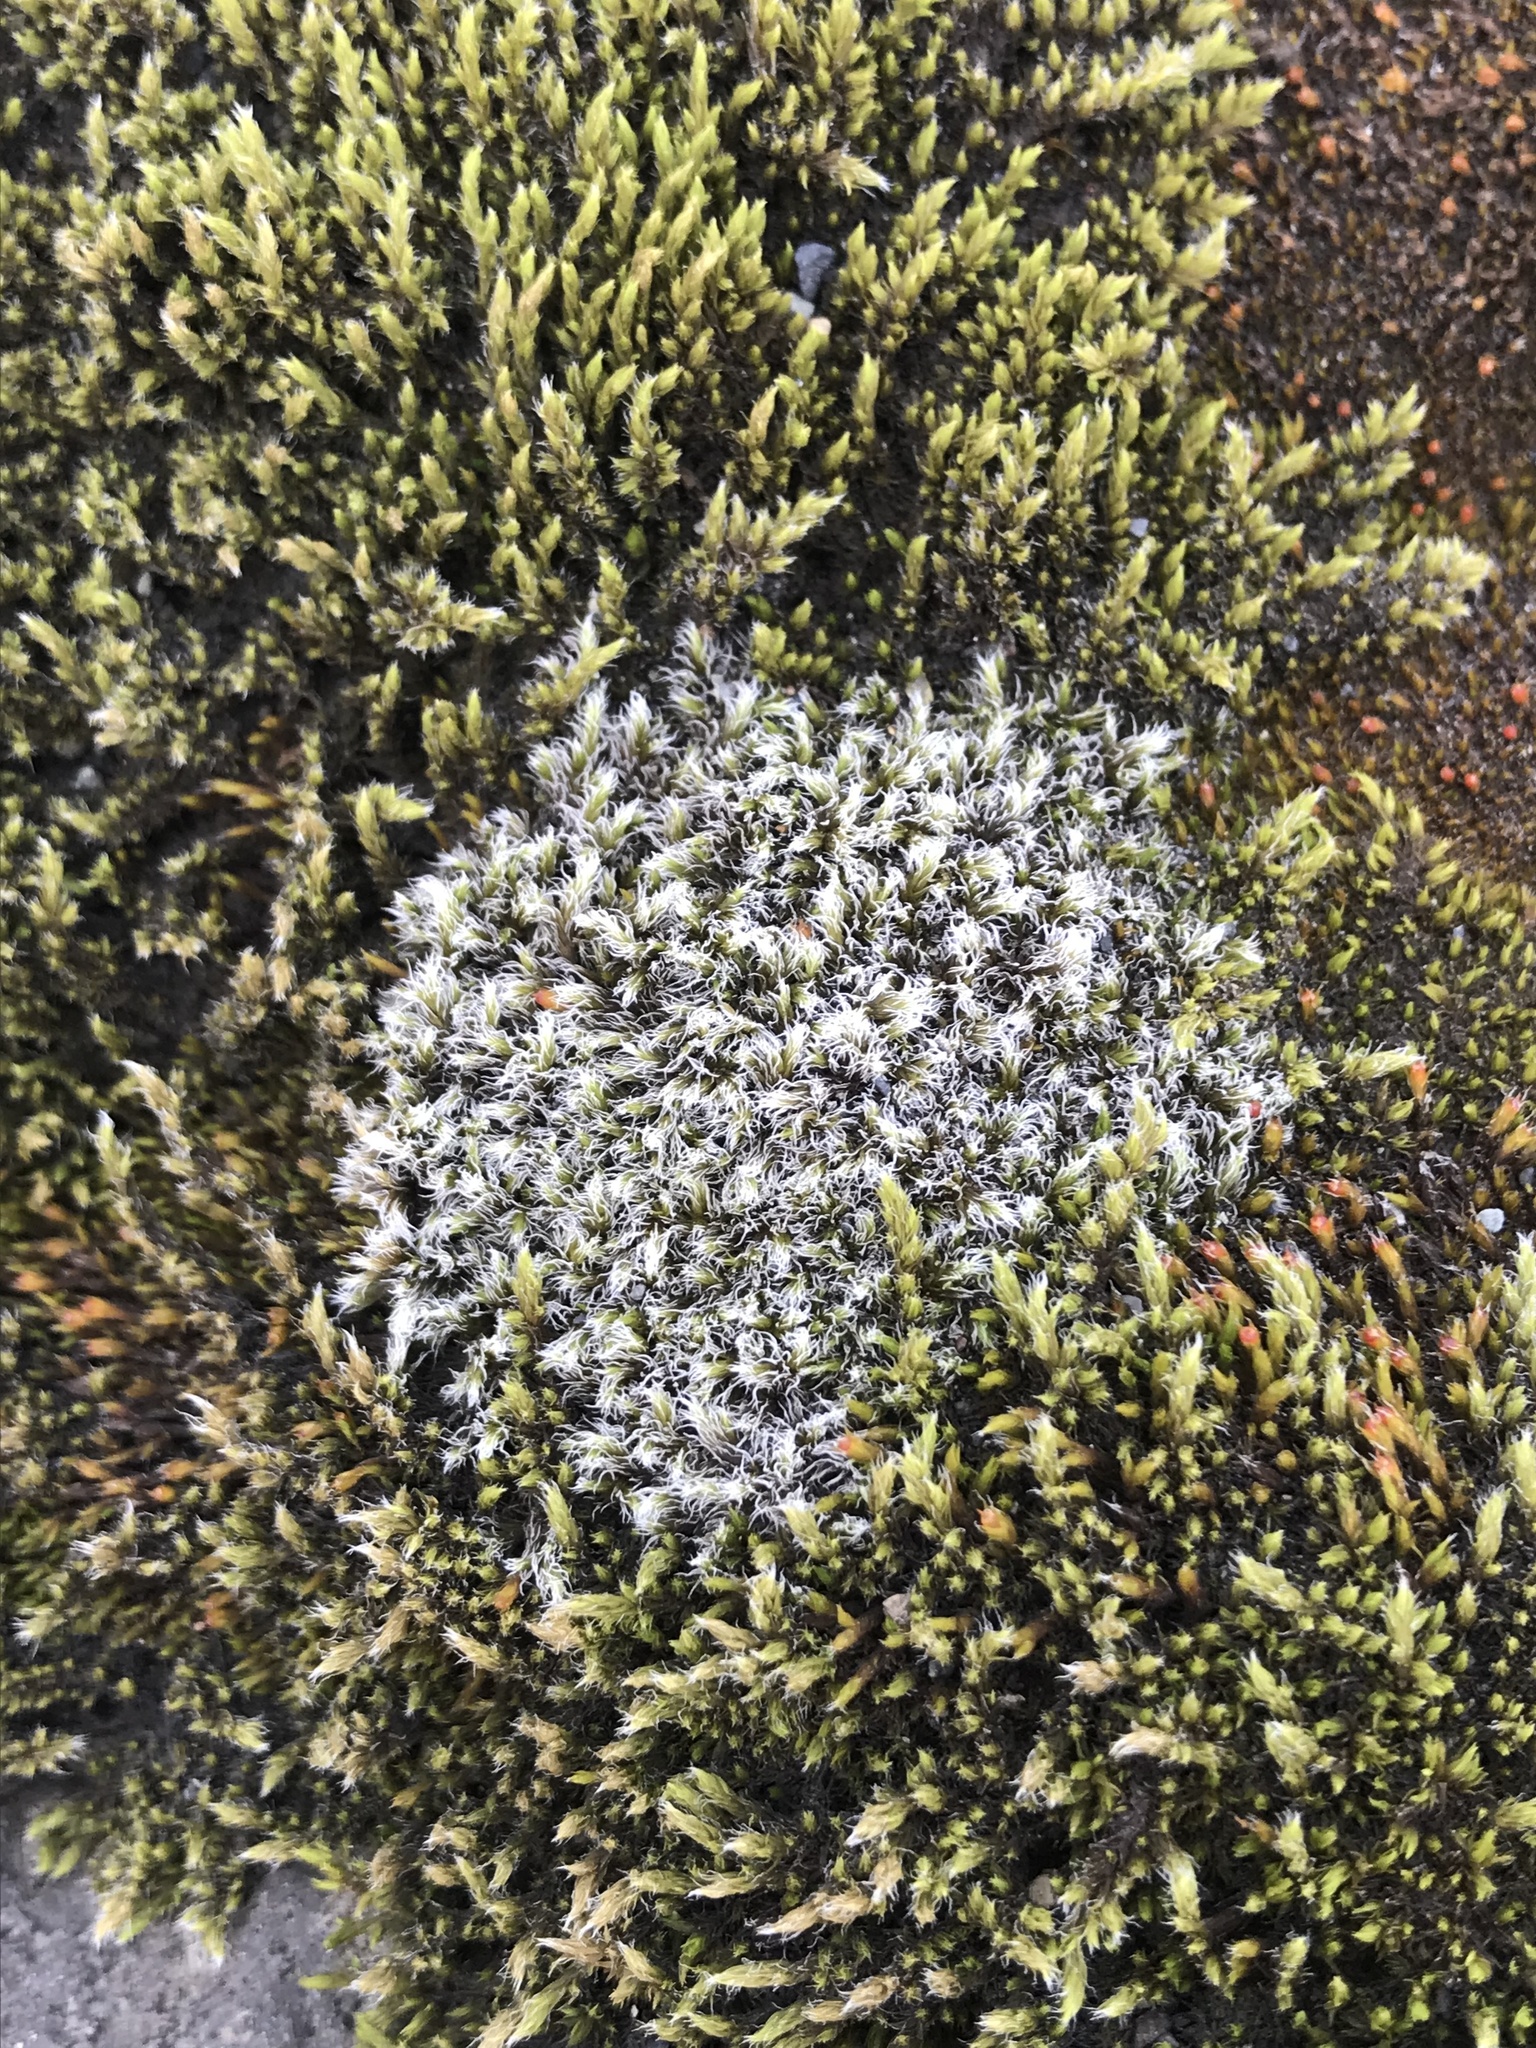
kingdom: Plantae
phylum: Bryophyta
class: Bryopsida
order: Grimmiales
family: Grimmiaceae
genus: Racomitrium
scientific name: Racomitrium lanuginosum
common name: Hoary rock moss
